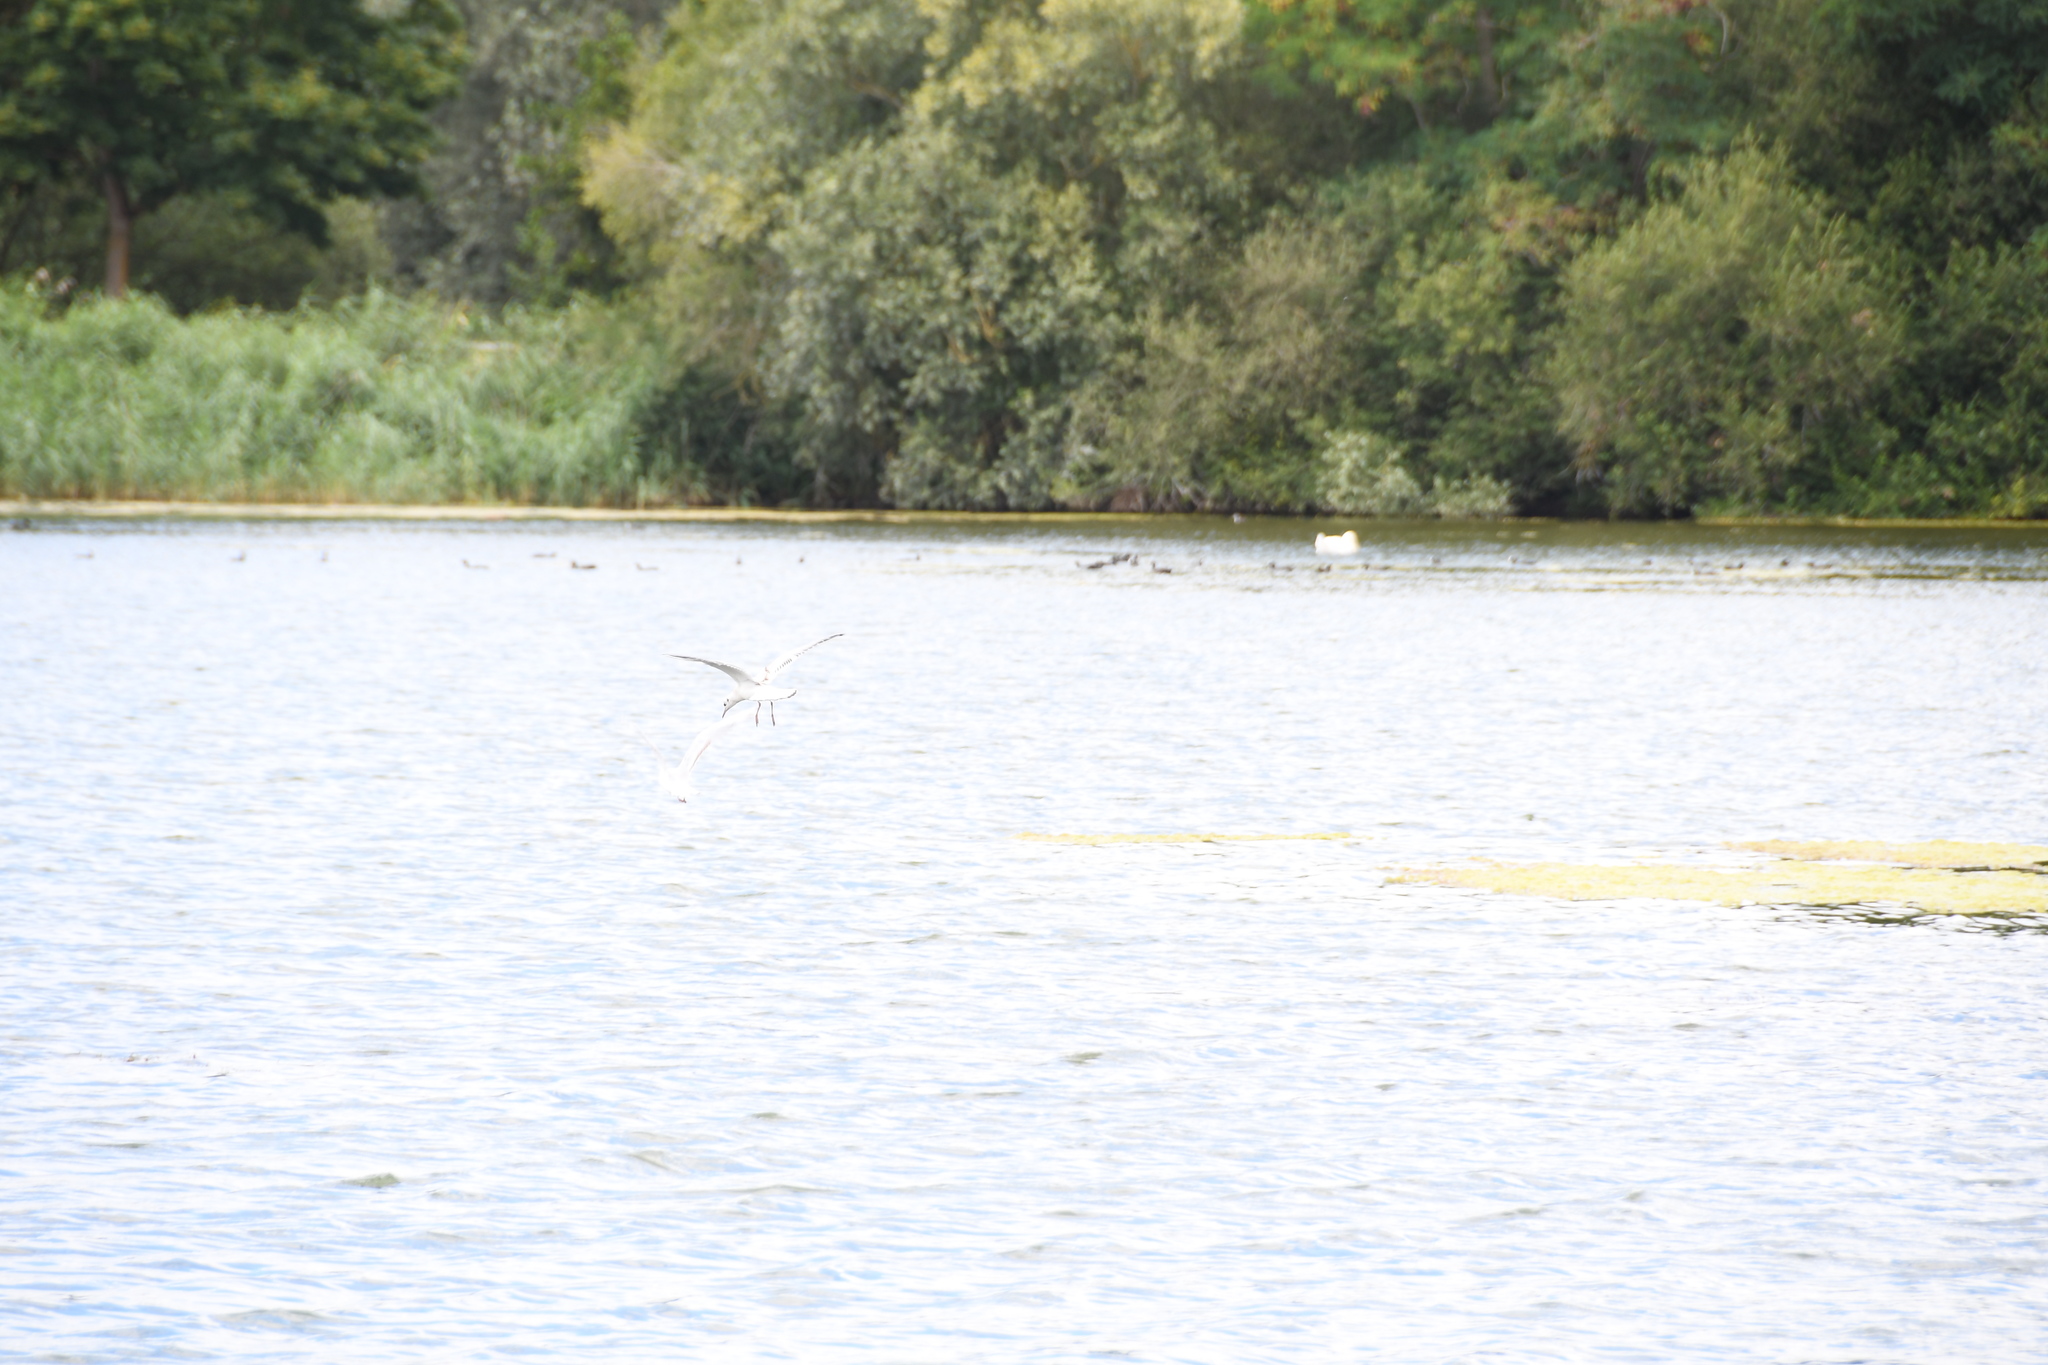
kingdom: Animalia
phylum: Chordata
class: Aves
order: Charadriiformes
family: Laridae
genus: Chroicocephalus
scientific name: Chroicocephalus ridibundus
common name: Black-headed gull
